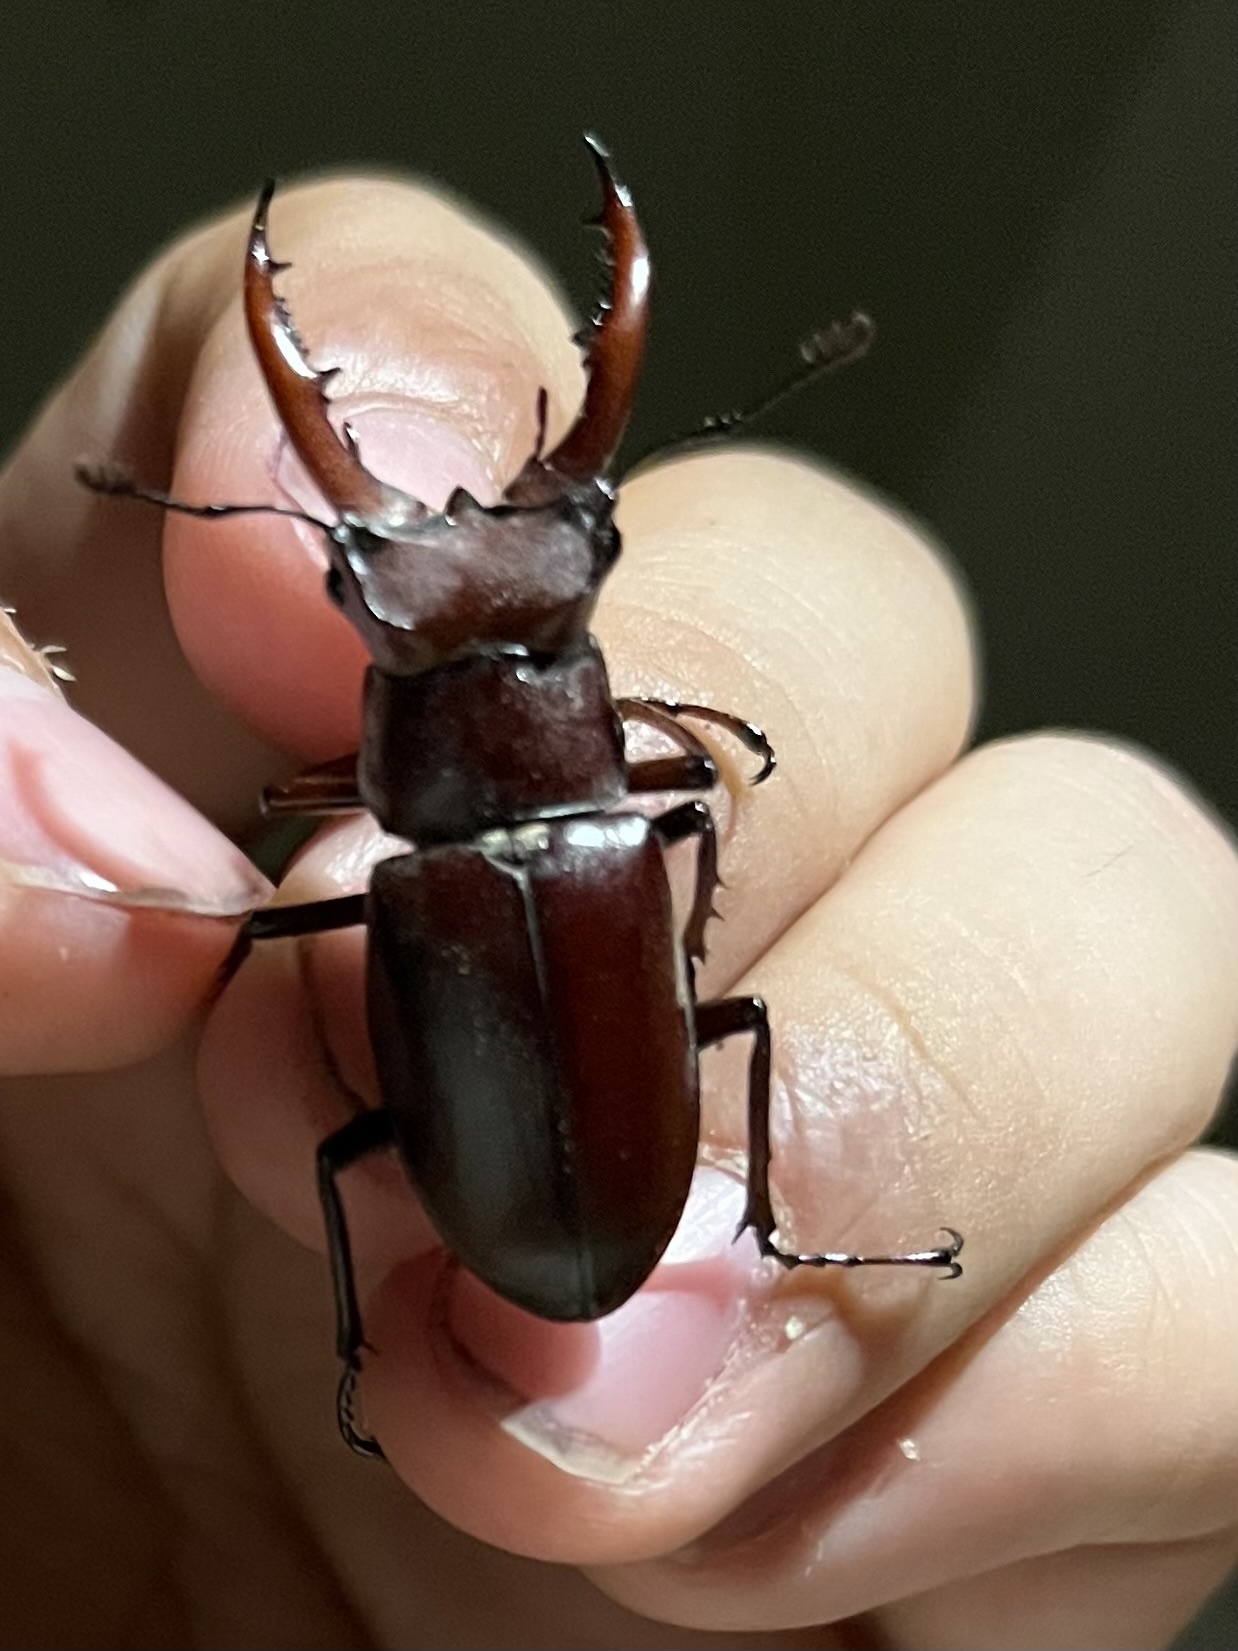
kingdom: Animalia
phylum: Arthropoda
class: Insecta
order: Coleoptera
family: Lucanidae
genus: Lucanus
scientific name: Lucanus elaphus
